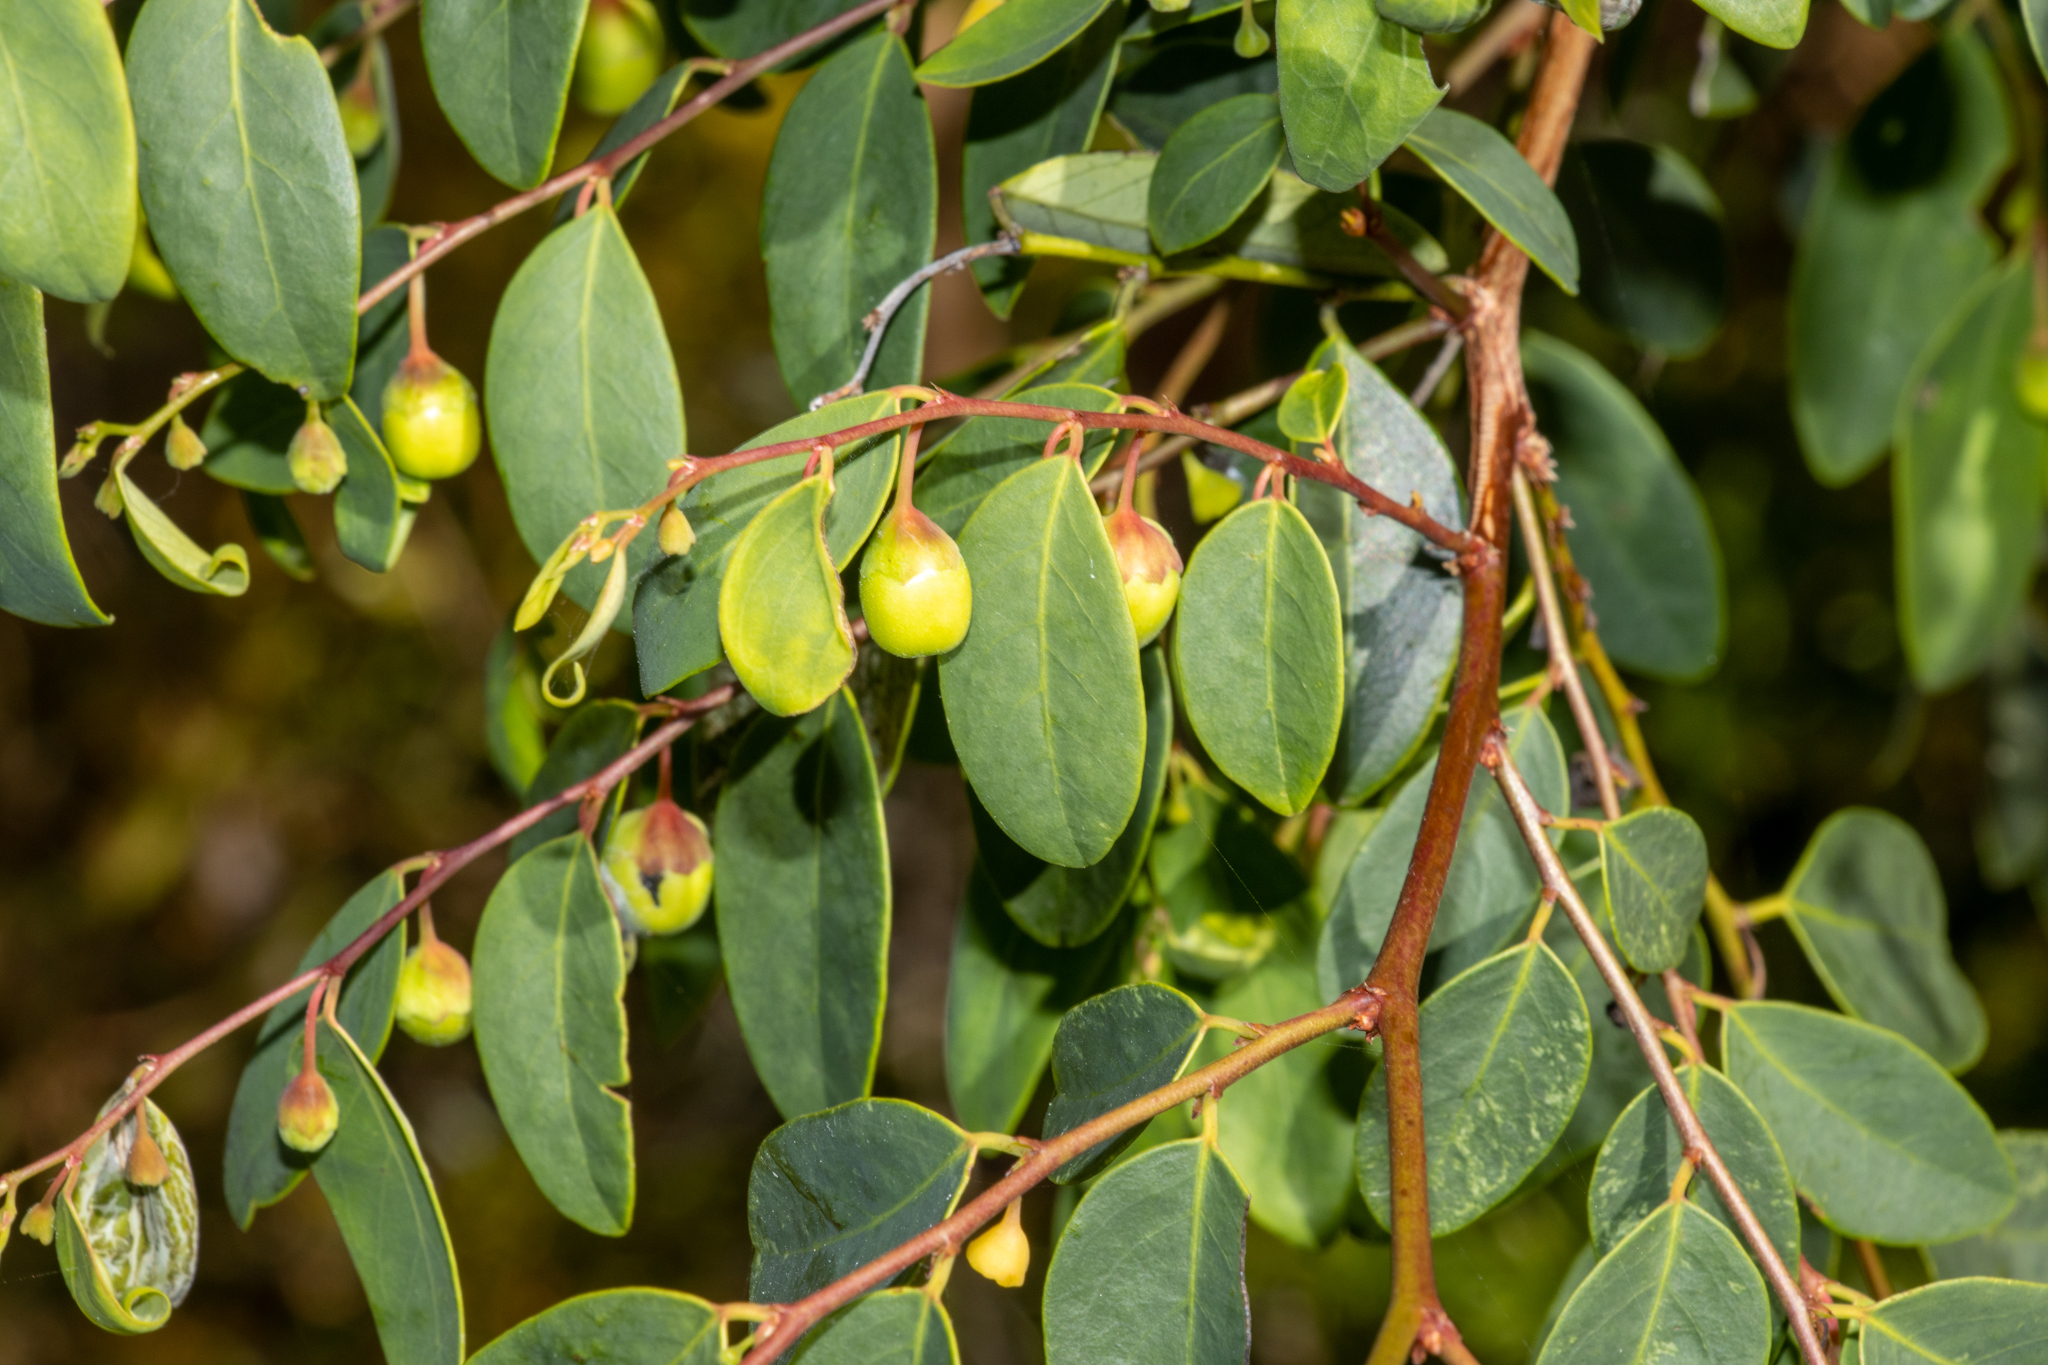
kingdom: Plantae
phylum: Tracheophyta
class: Magnoliopsida
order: Malpighiales
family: Phyllanthaceae
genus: Breynia
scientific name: Breynia oblongifolia
